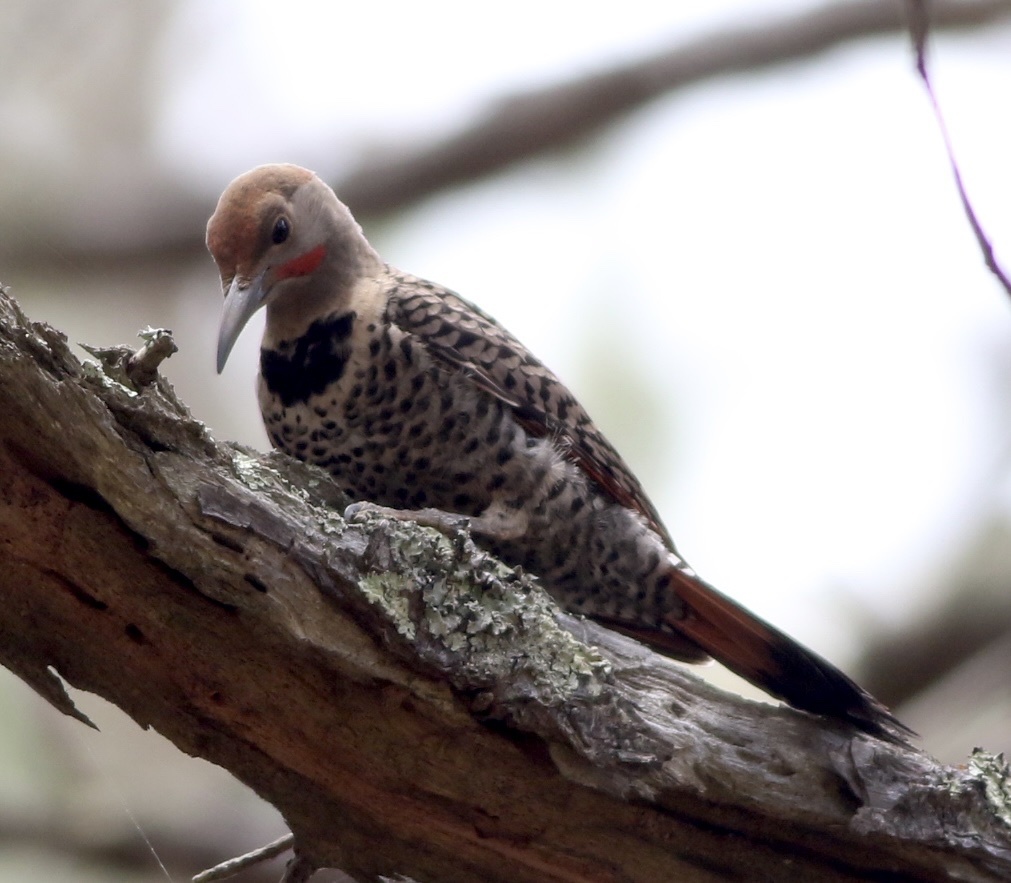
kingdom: Animalia
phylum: Chordata
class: Aves
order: Piciformes
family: Picidae
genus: Colaptes
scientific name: Colaptes auratus
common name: Northern flicker
